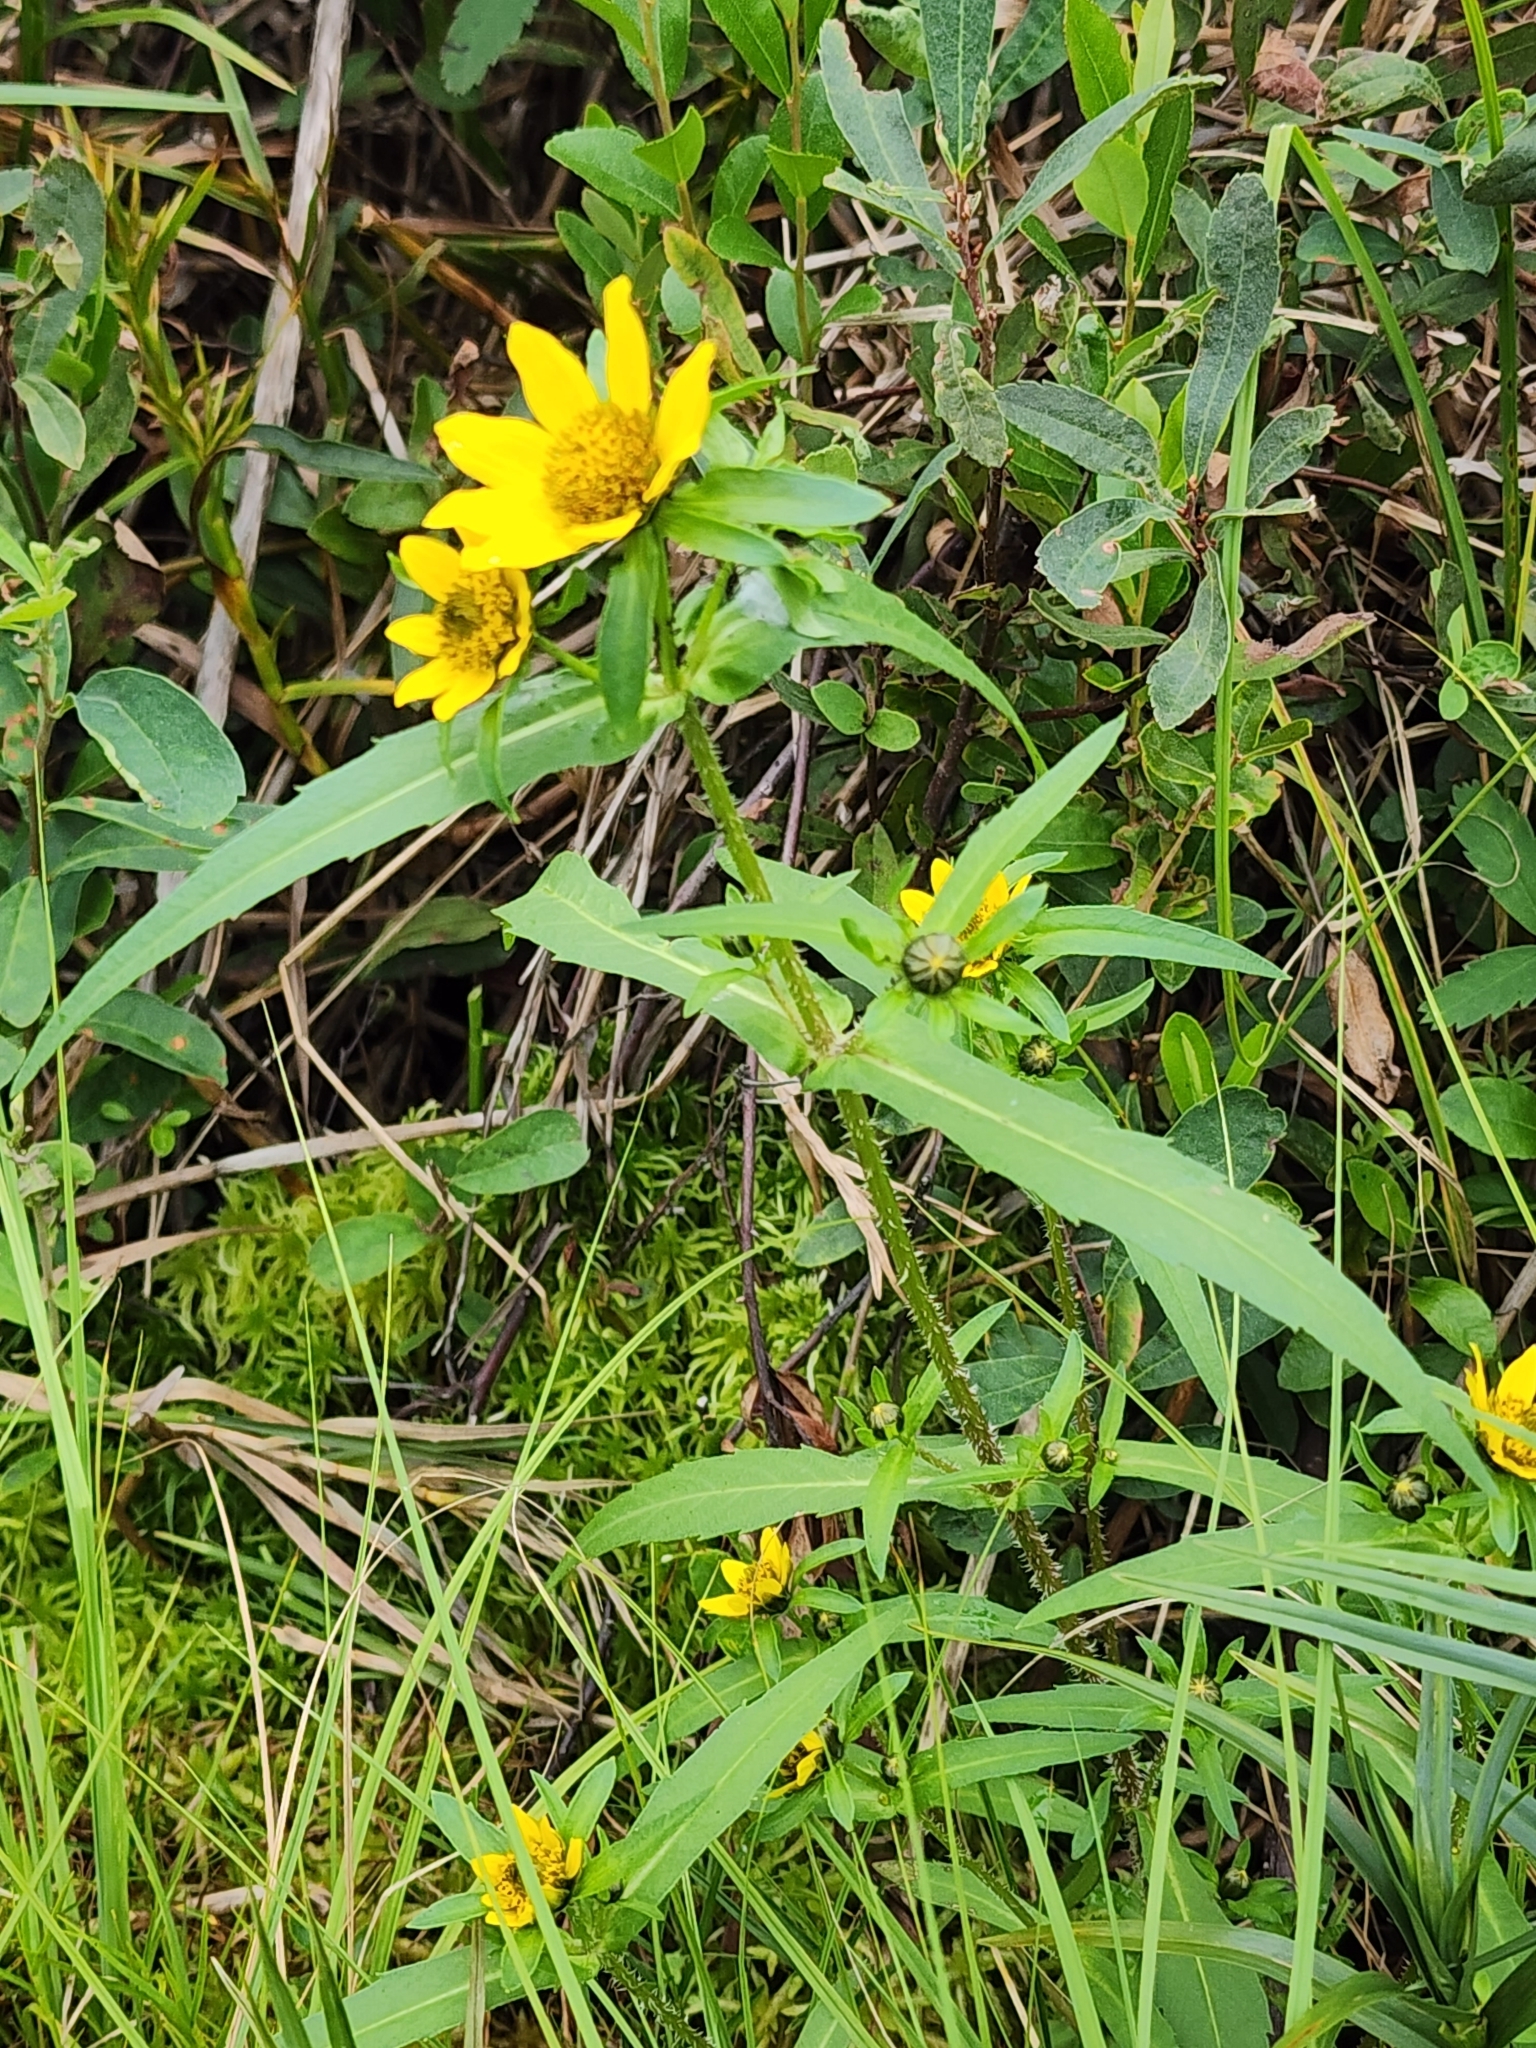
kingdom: Plantae
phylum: Tracheophyta
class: Magnoliopsida
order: Asterales
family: Asteraceae
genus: Bidens
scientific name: Bidens cernua
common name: Nodding bur-marigold
